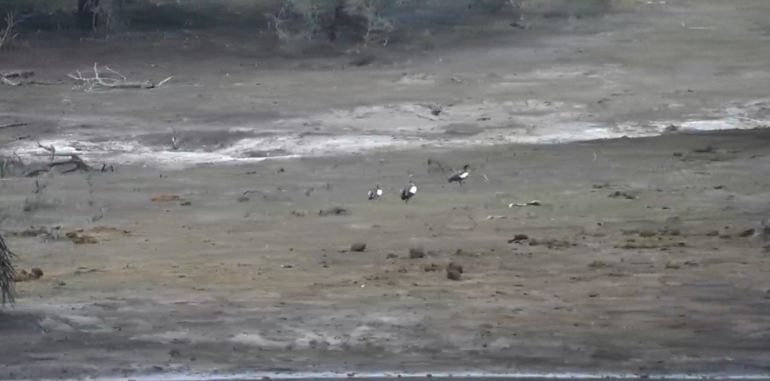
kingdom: Animalia
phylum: Chordata
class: Aves
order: Anseriformes
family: Anatidae
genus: Alopochen
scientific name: Alopochen aegyptiaca
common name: Egyptian goose
